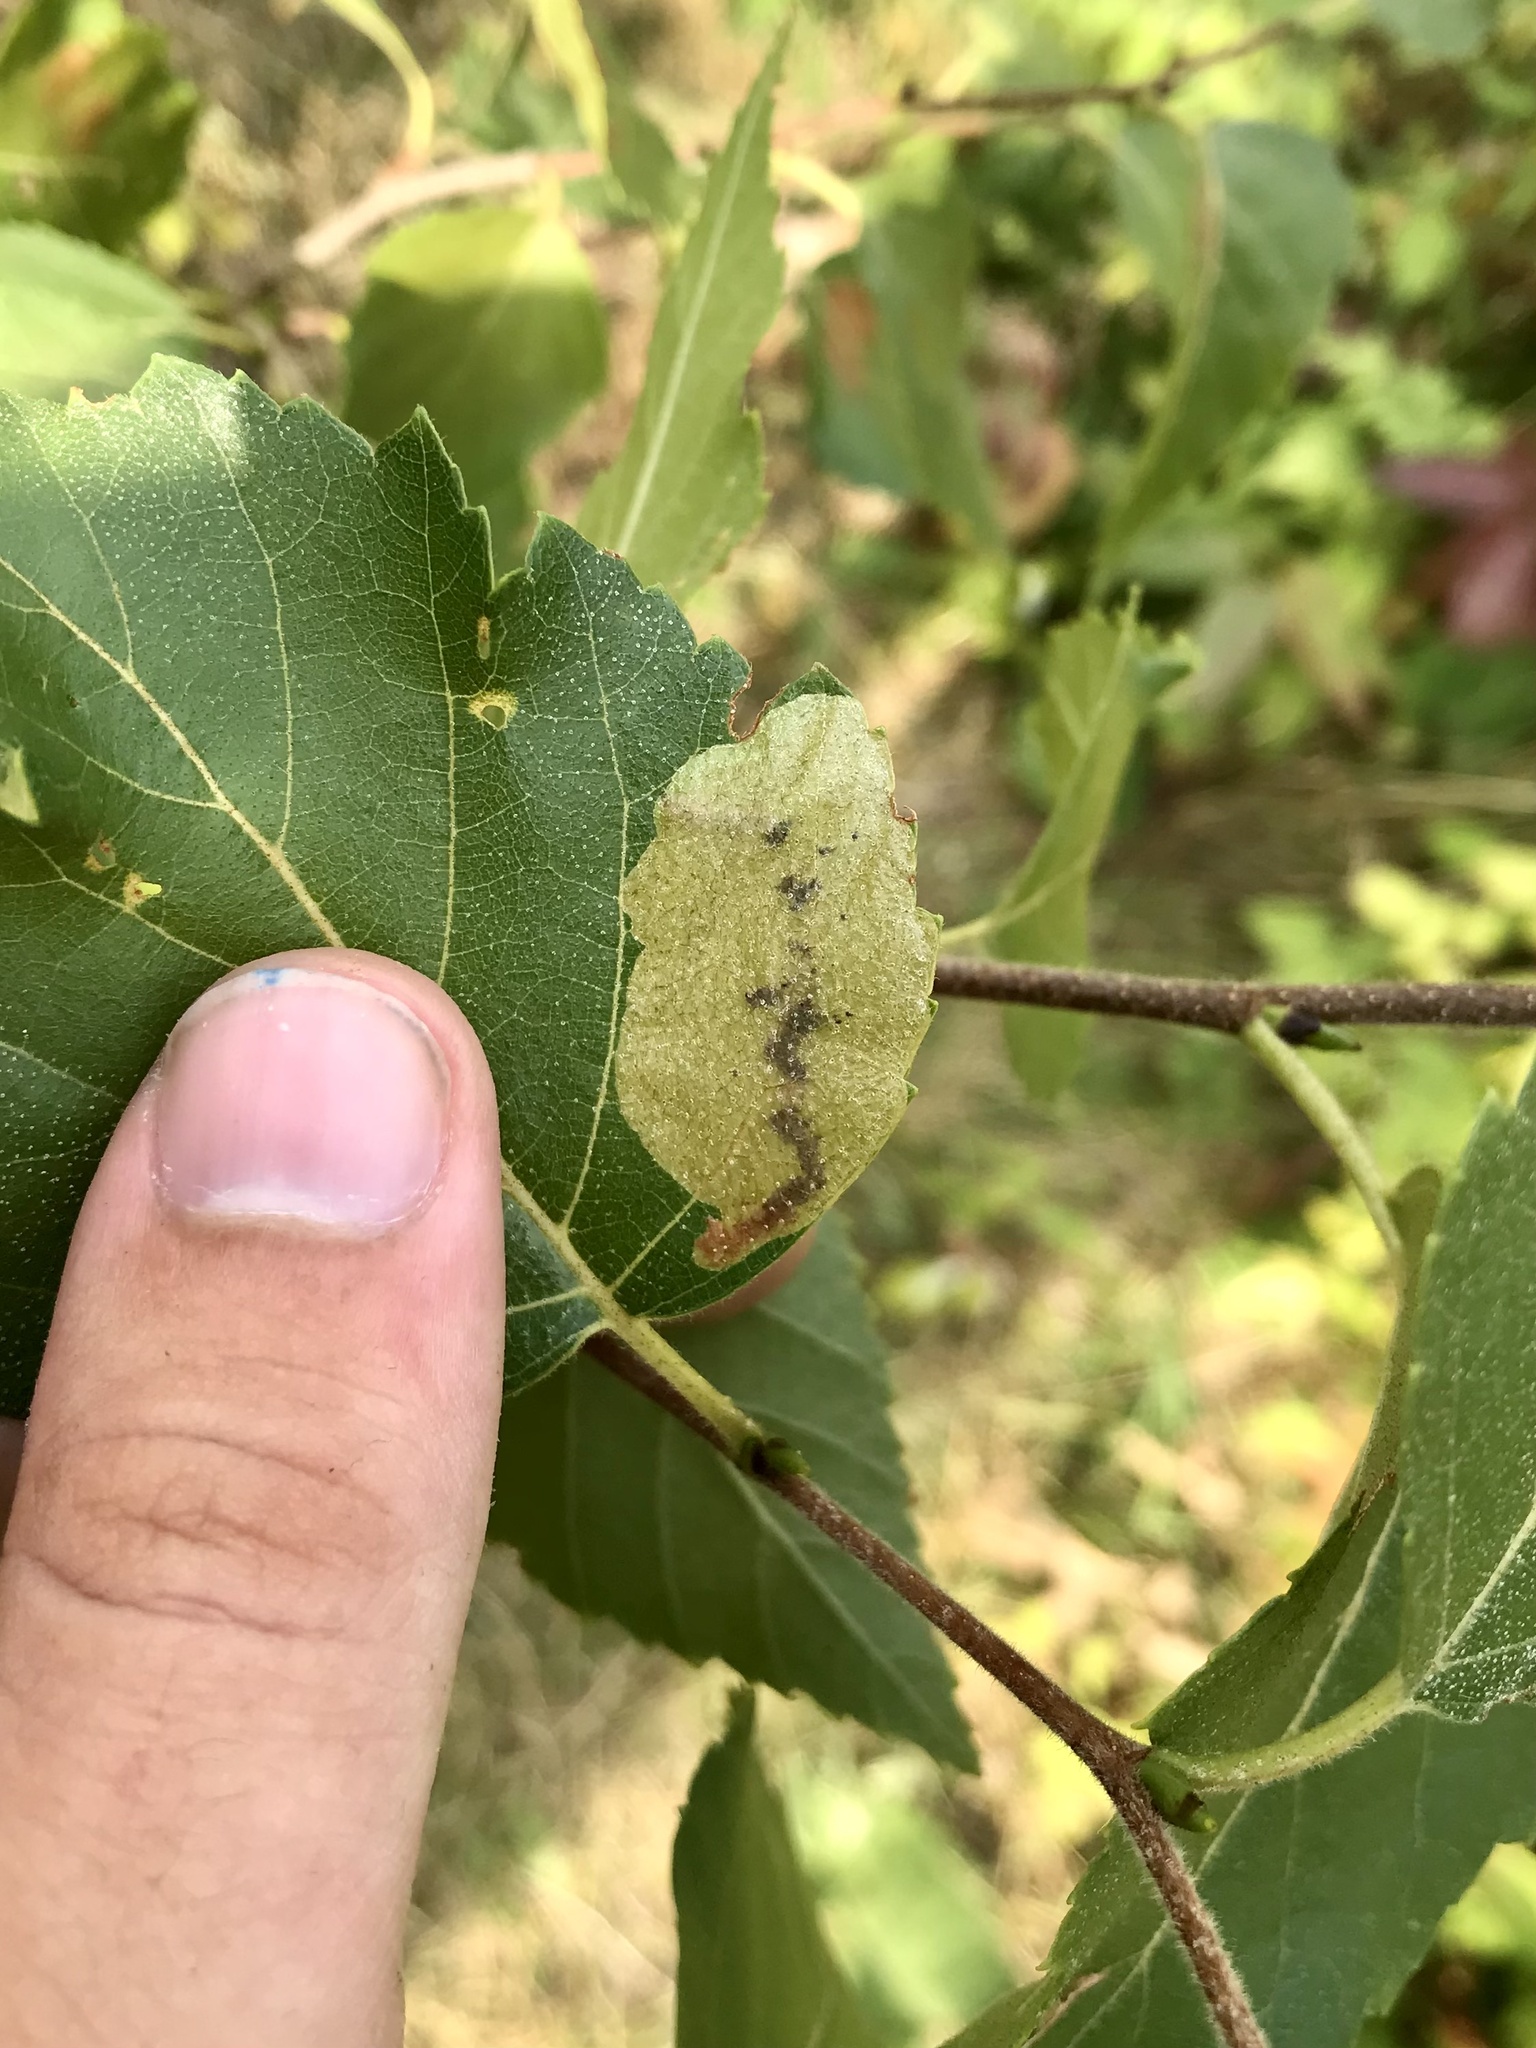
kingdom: Animalia
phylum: Arthropoda
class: Insecta
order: Hymenoptera
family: Tenthredinidae
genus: Profenusa
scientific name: Profenusa thomsoni
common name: Amber-marked birch leafminer
